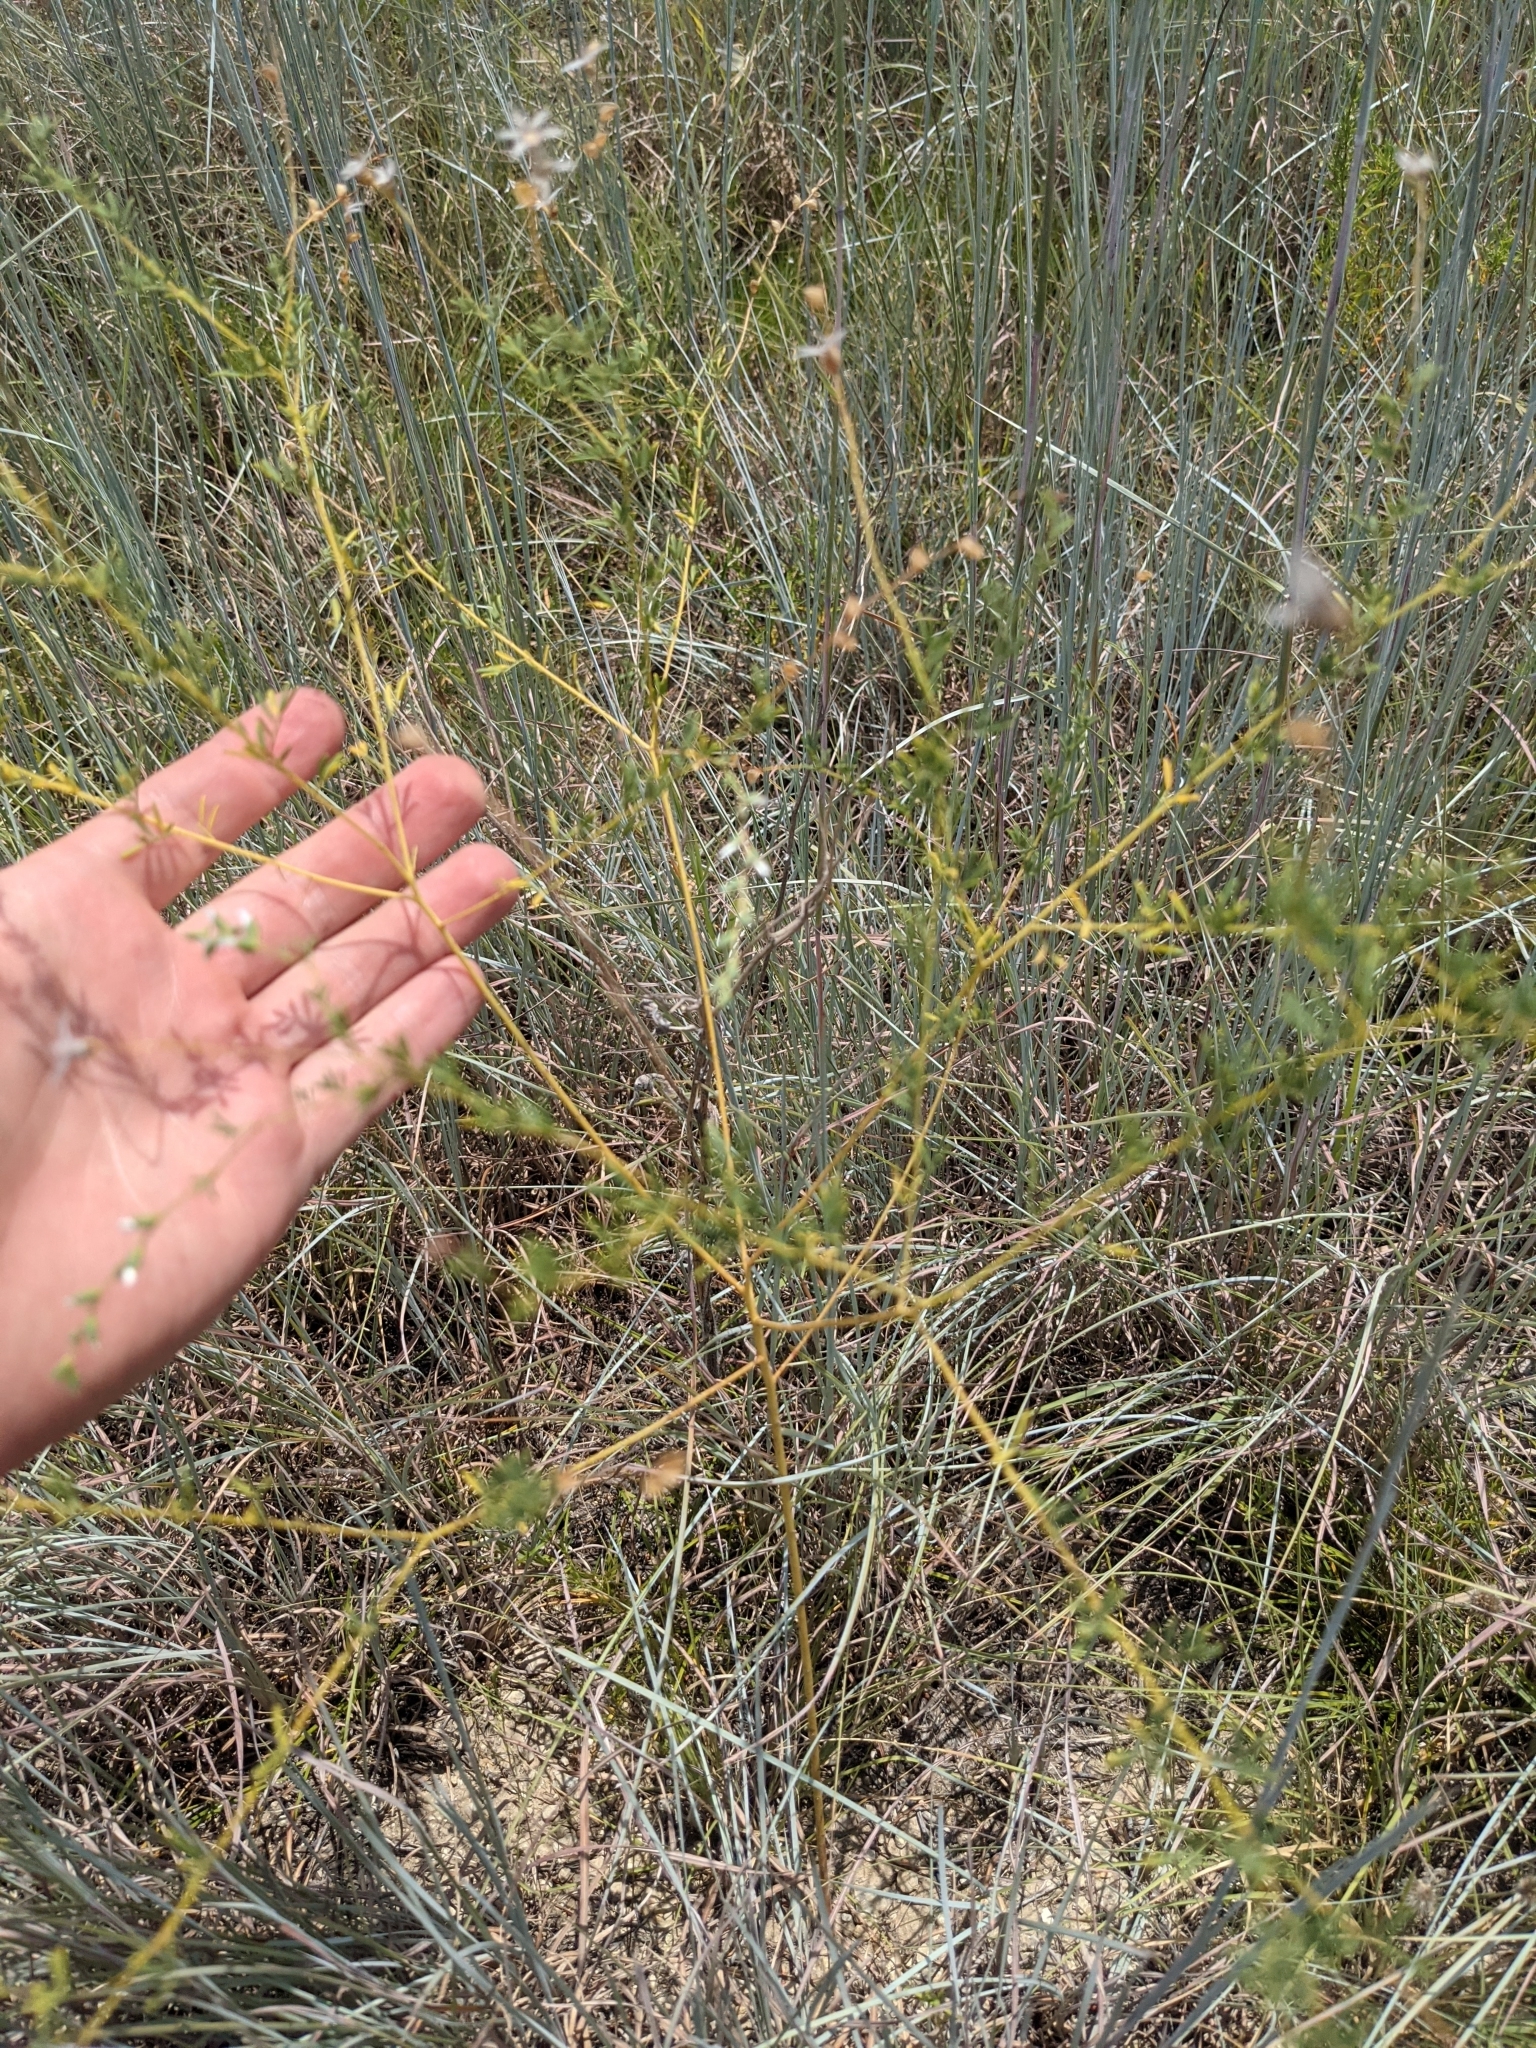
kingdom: Plantae
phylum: Tracheophyta
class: Magnoliopsida
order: Fabales
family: Fabaceae
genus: Dalea
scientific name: Dalea enneandra
